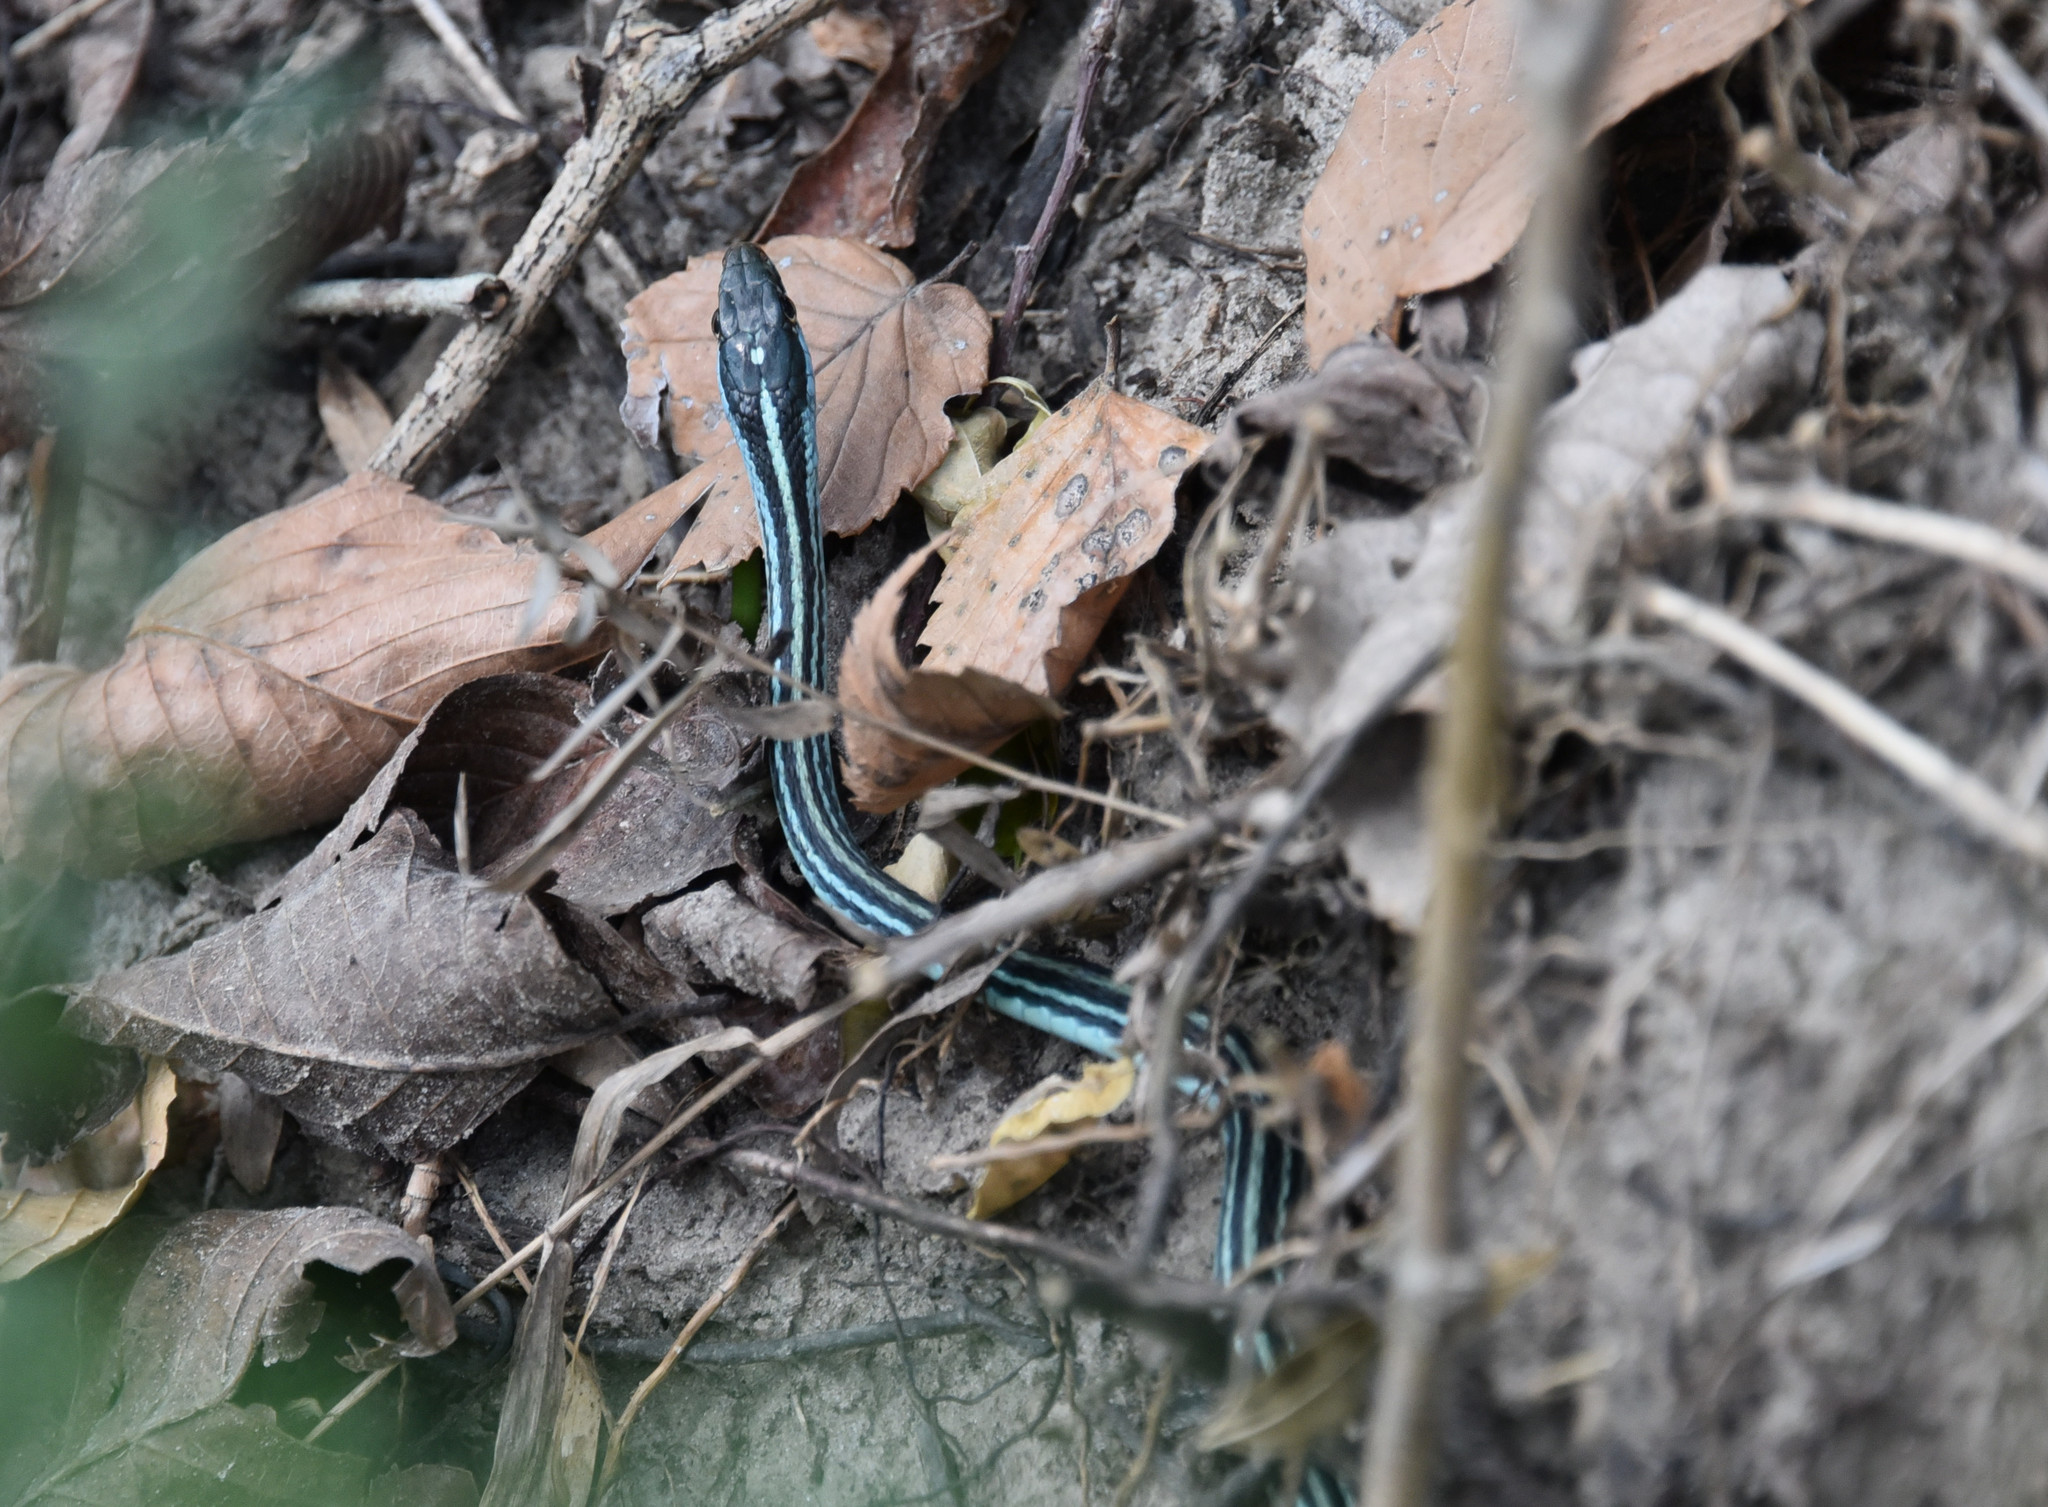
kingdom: Animalia
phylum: Chordata
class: Squamata
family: Colubridae
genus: Thamnophis
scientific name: Thamnophis proximus
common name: Western ribbon snake
